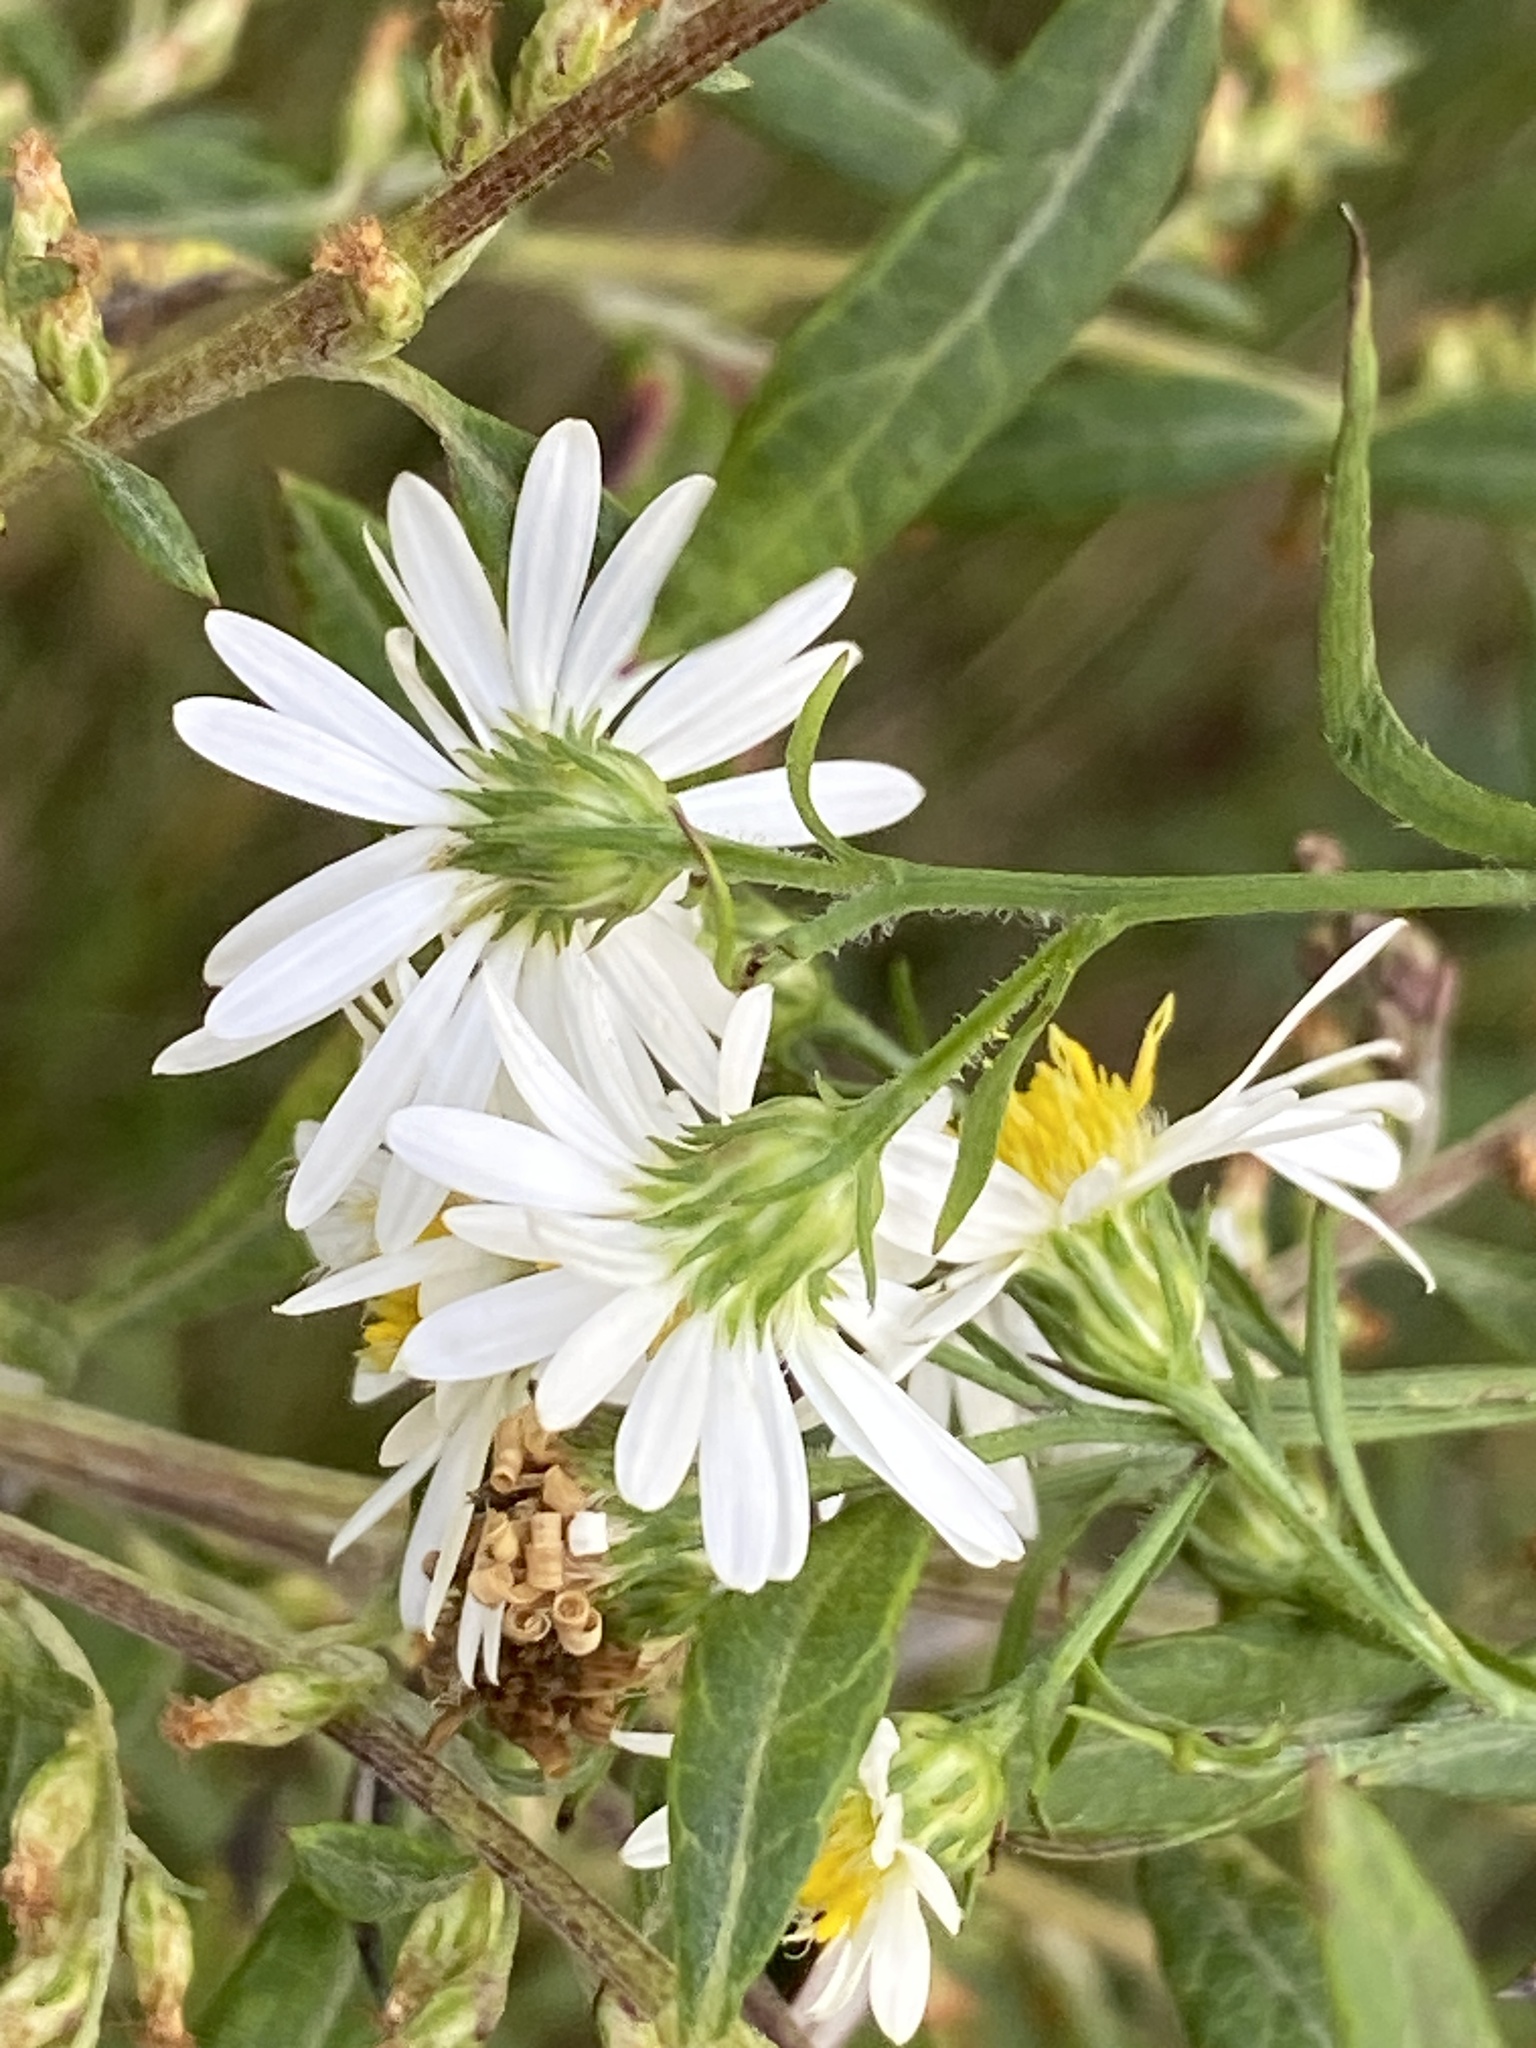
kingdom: Plantae
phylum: Tracheophyta
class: Magnoliopsida
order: Asterales
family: Asteraceae
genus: Symphyotrichum
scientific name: Symphyotrichum pilosum
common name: Awl aster
